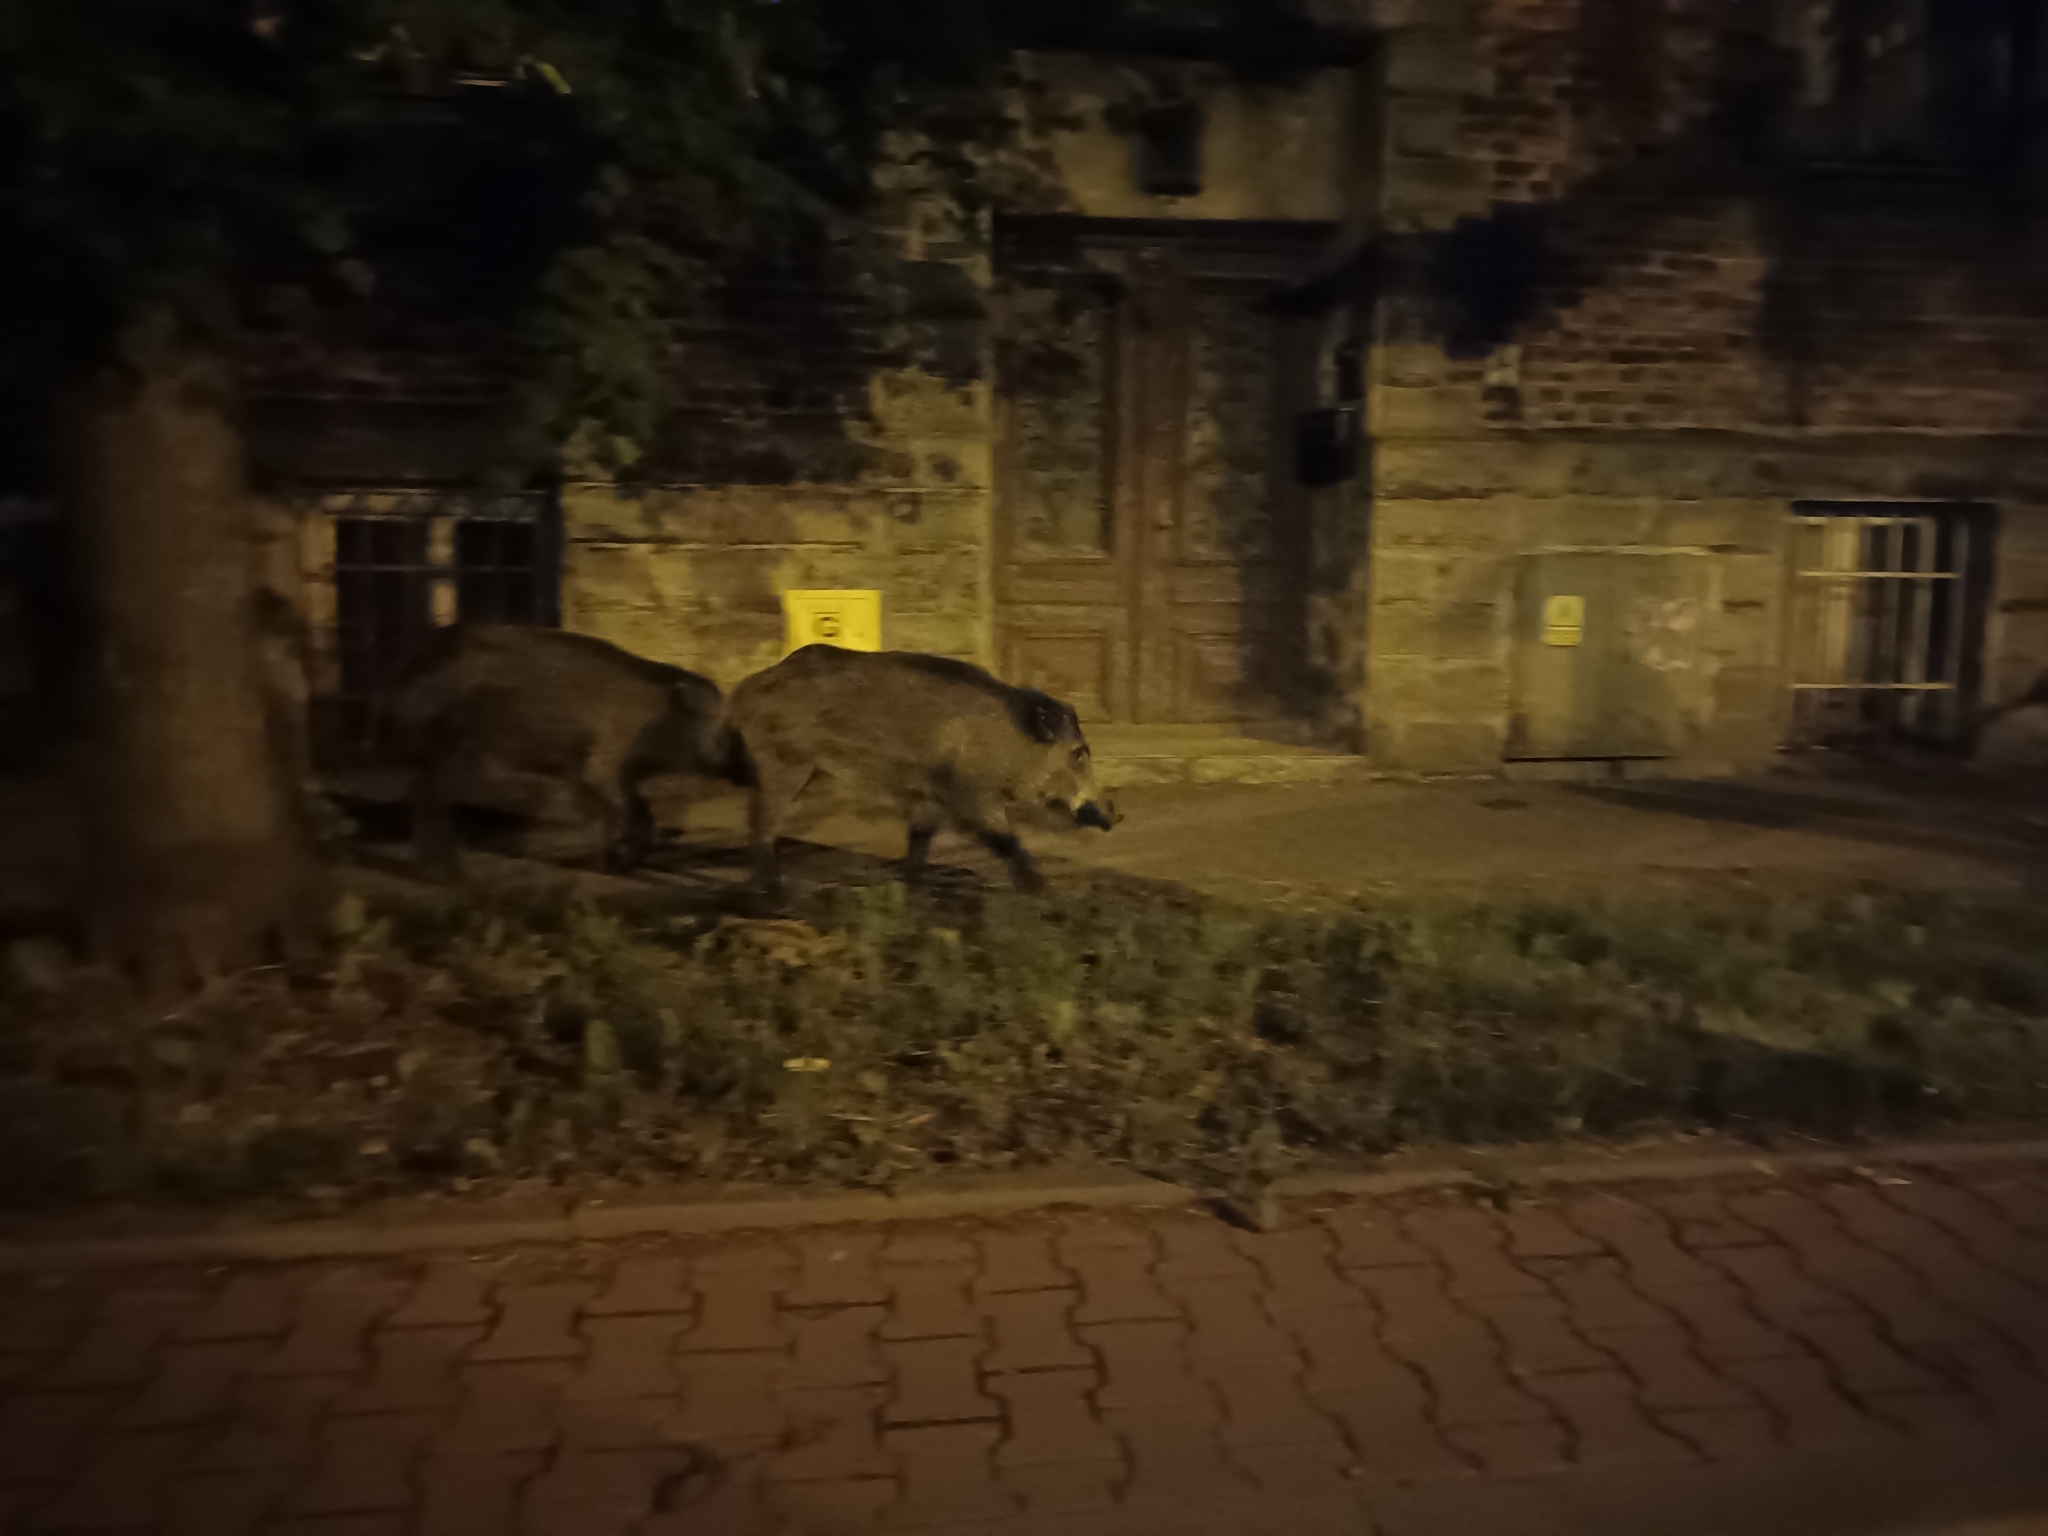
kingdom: Animalia
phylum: Chordata
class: Mammalia
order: Artiodactyla
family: Suidae
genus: Sus
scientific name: Sus scrofa
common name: Wild boar
